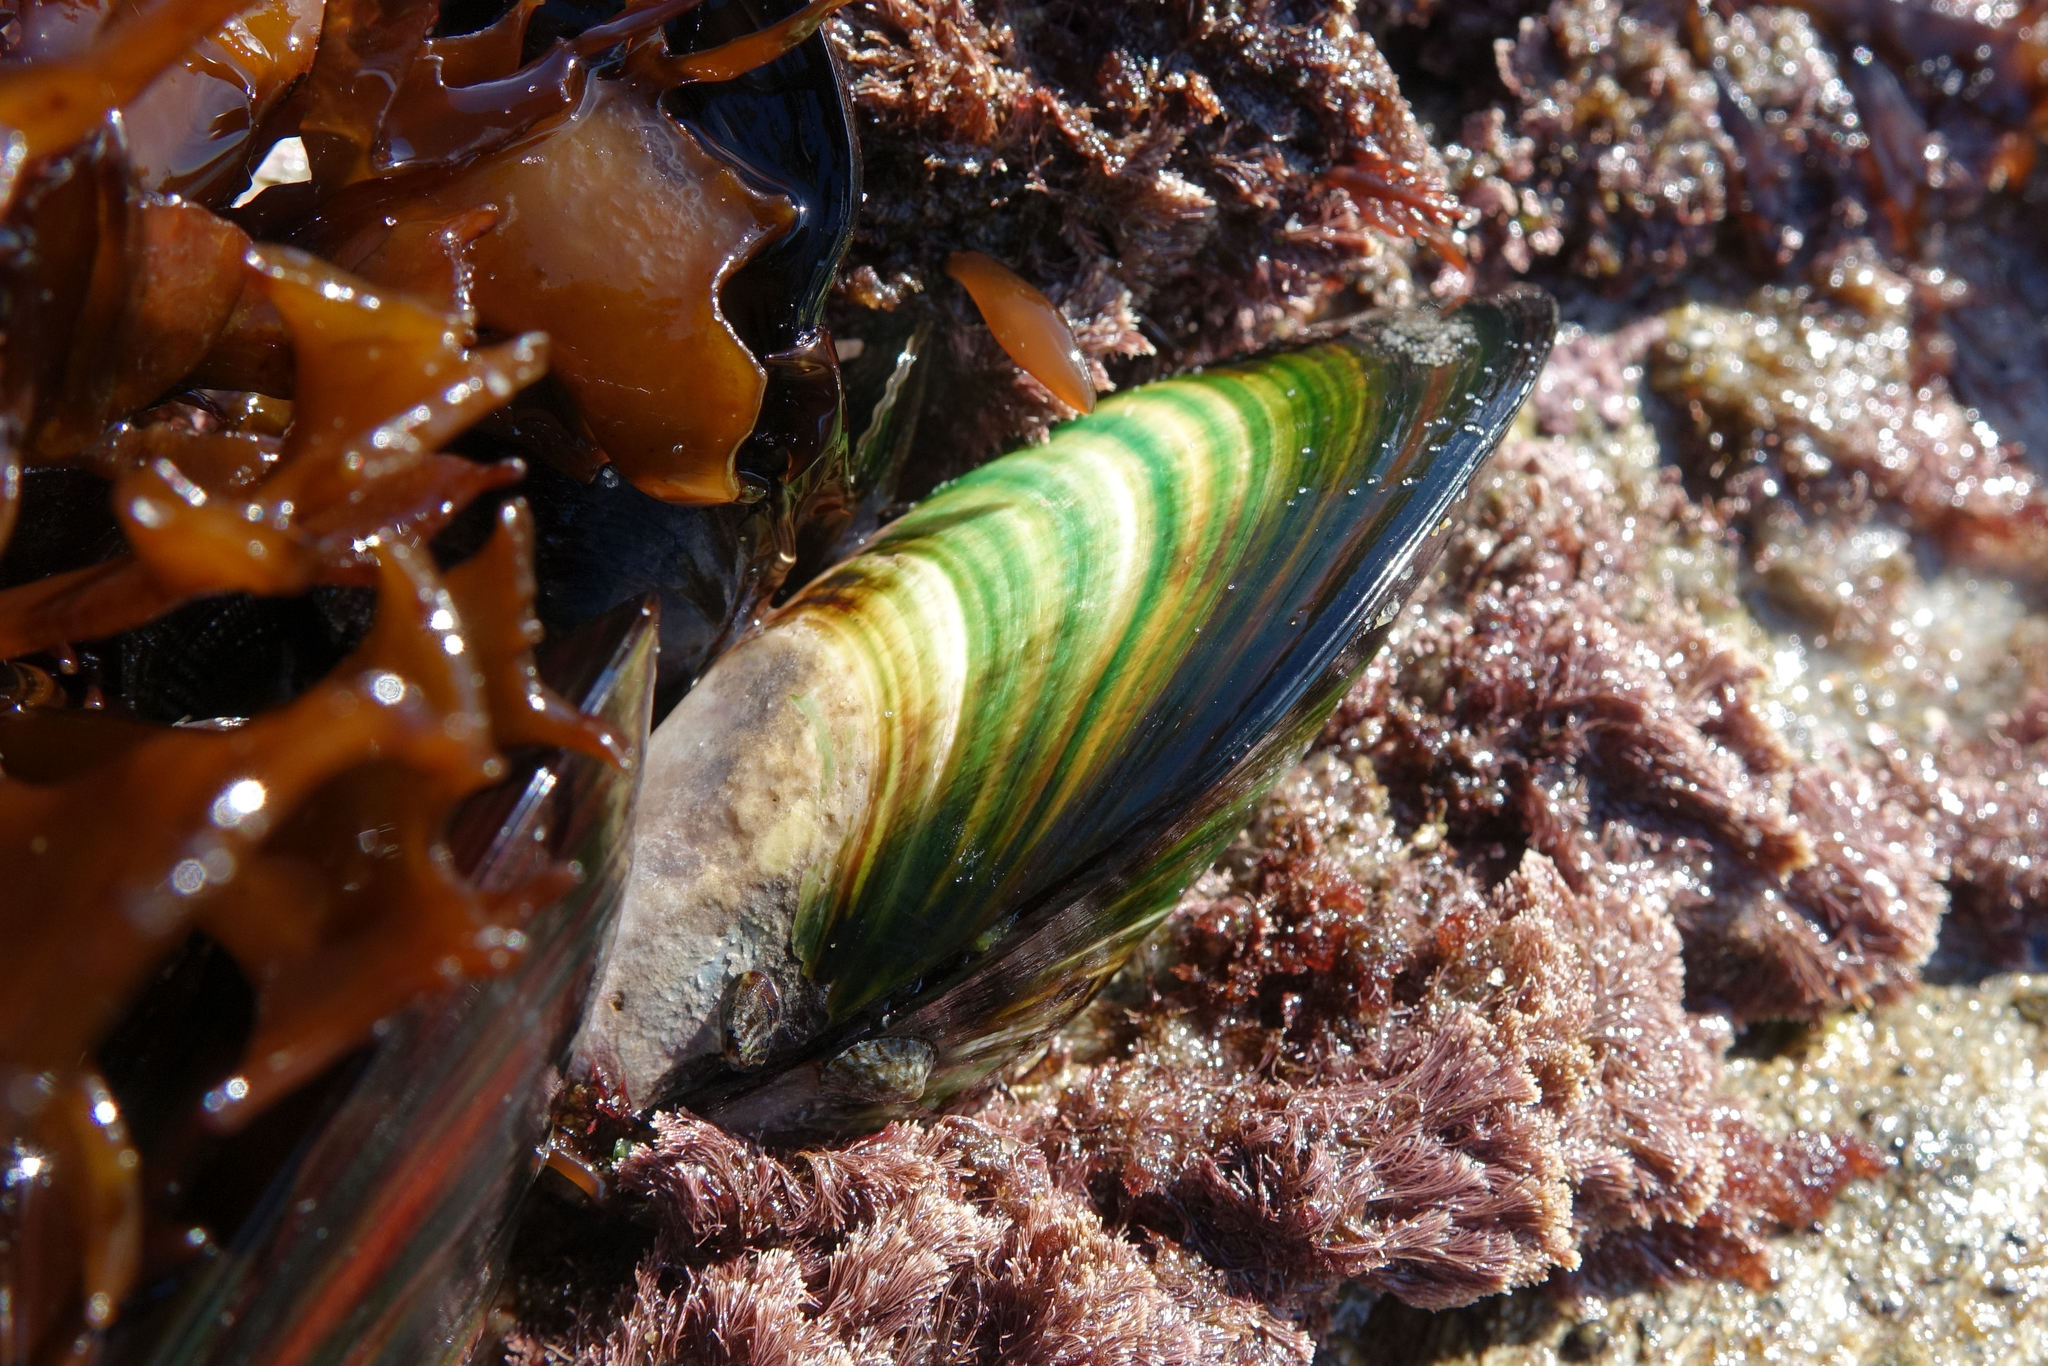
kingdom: Animalia
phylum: Mollusca
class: Bivalvia
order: Mytilida
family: Mytilidae
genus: Perna
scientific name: Perna canaliculus
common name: New zealand greenshelltm
